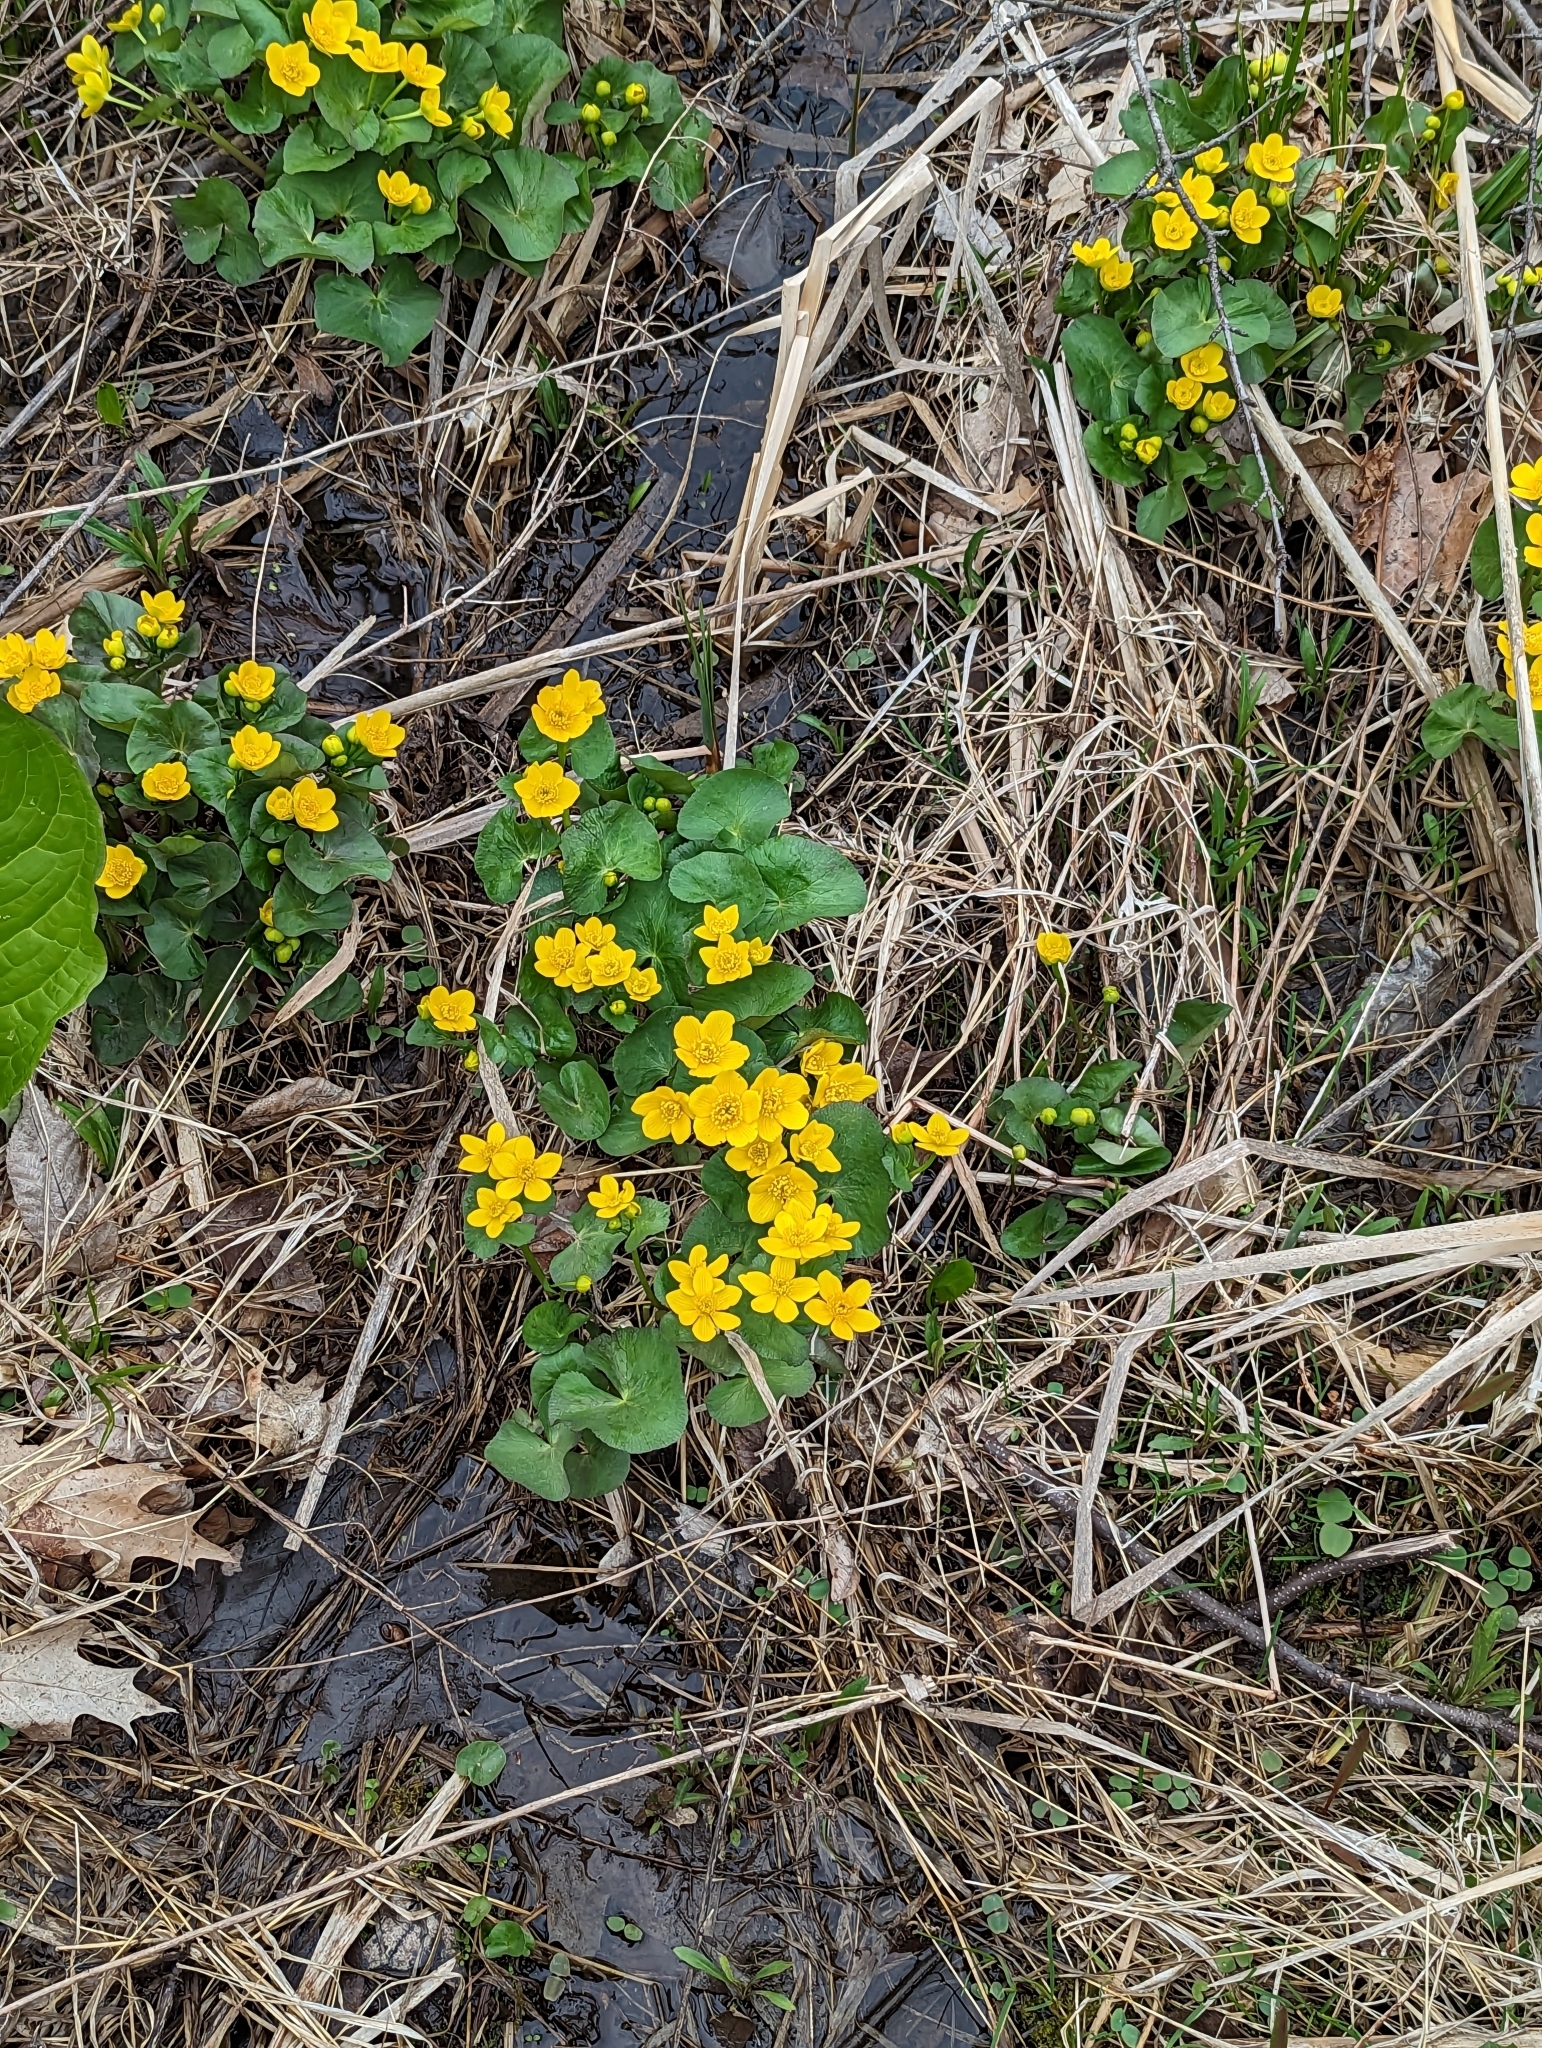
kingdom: Plantae
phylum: Tracheophyta
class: Magnoliopsida
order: Ranunculales
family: Ranunculaceae
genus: Caltha
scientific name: Caltha palustris
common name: Marsh marigold
